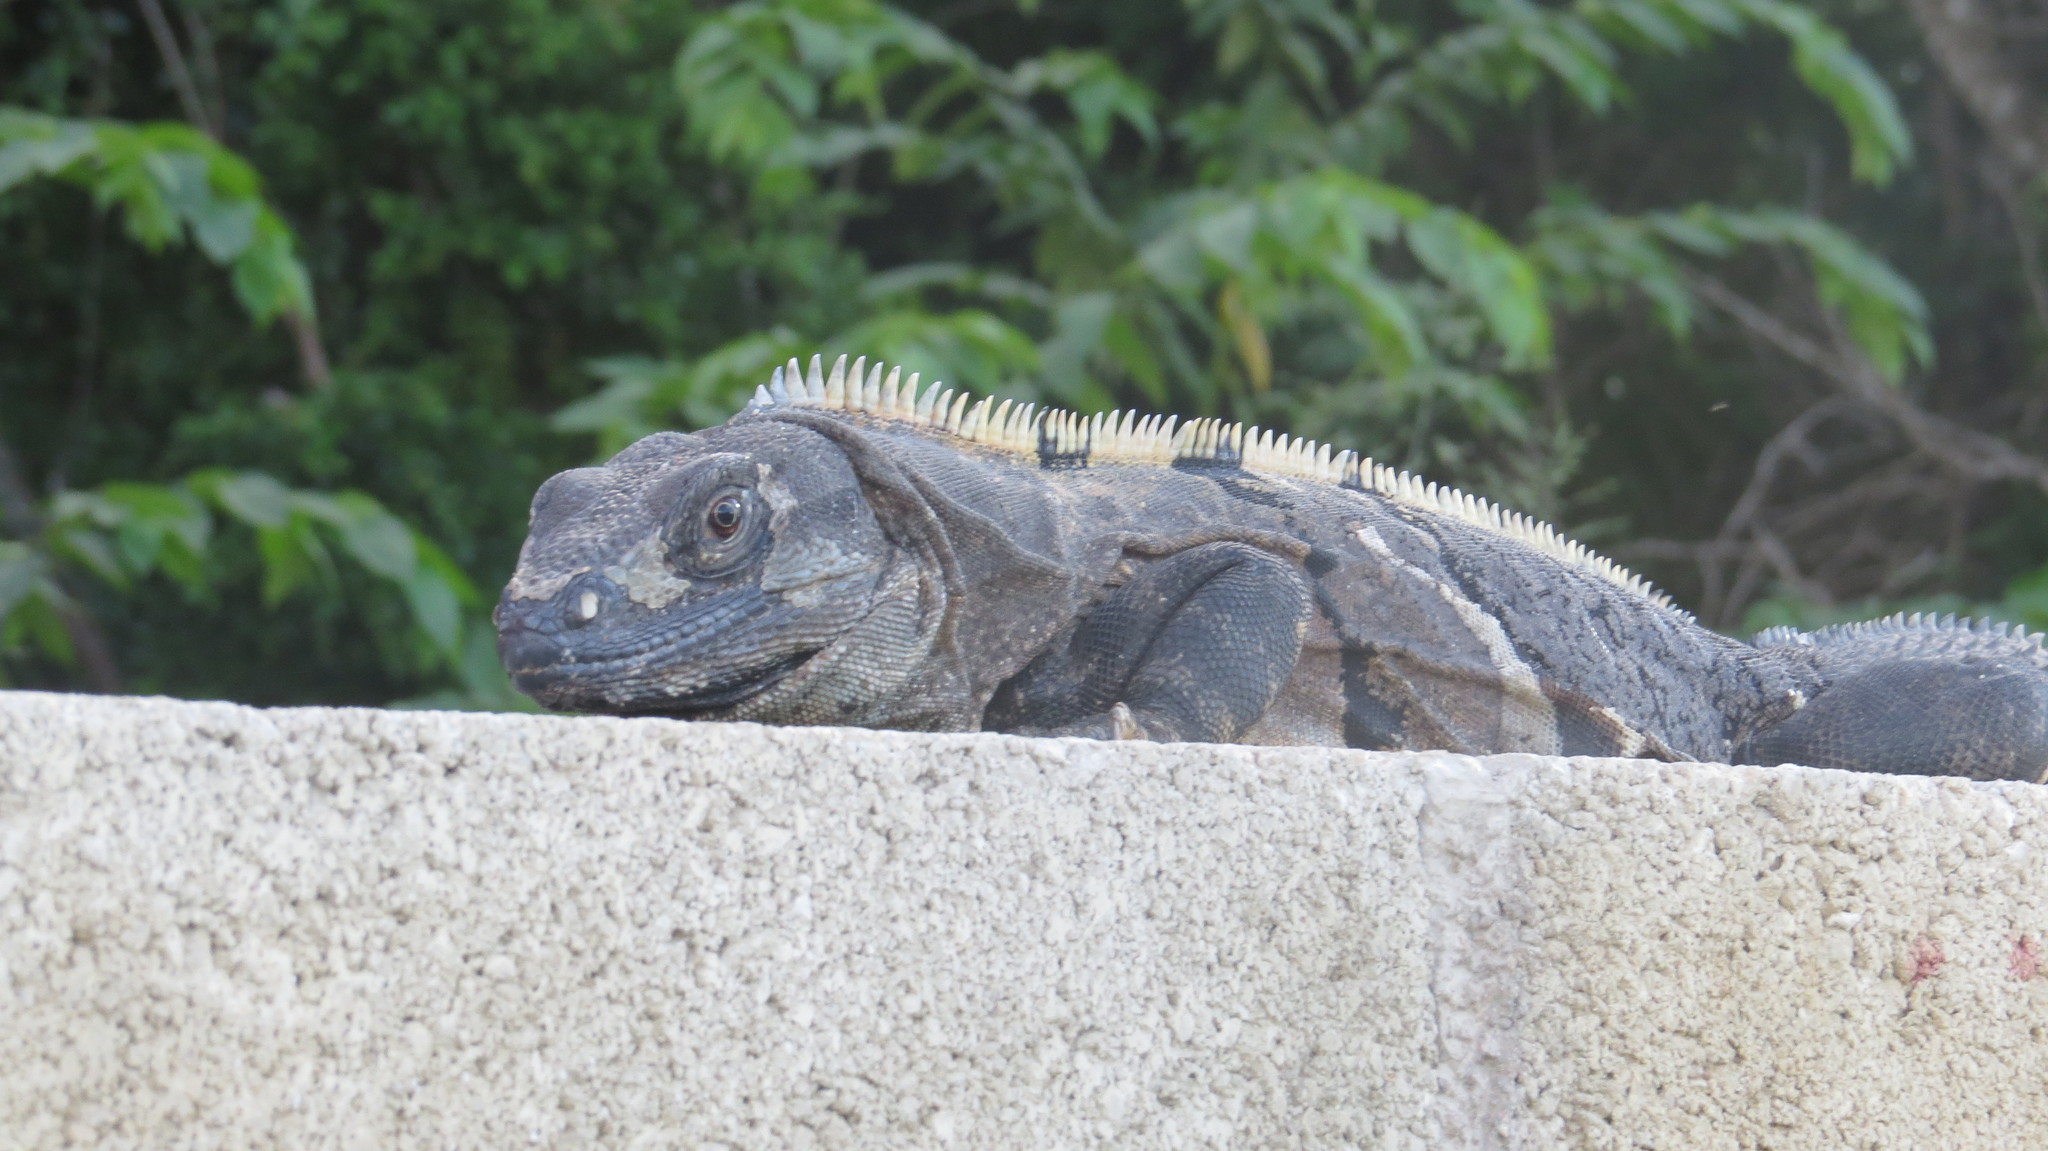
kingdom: Animalia
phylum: Chordata
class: Squamata
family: Iguanidae
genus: Ctenosaura
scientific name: Ctenosaura similis
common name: Black spiny-tailed iguana
